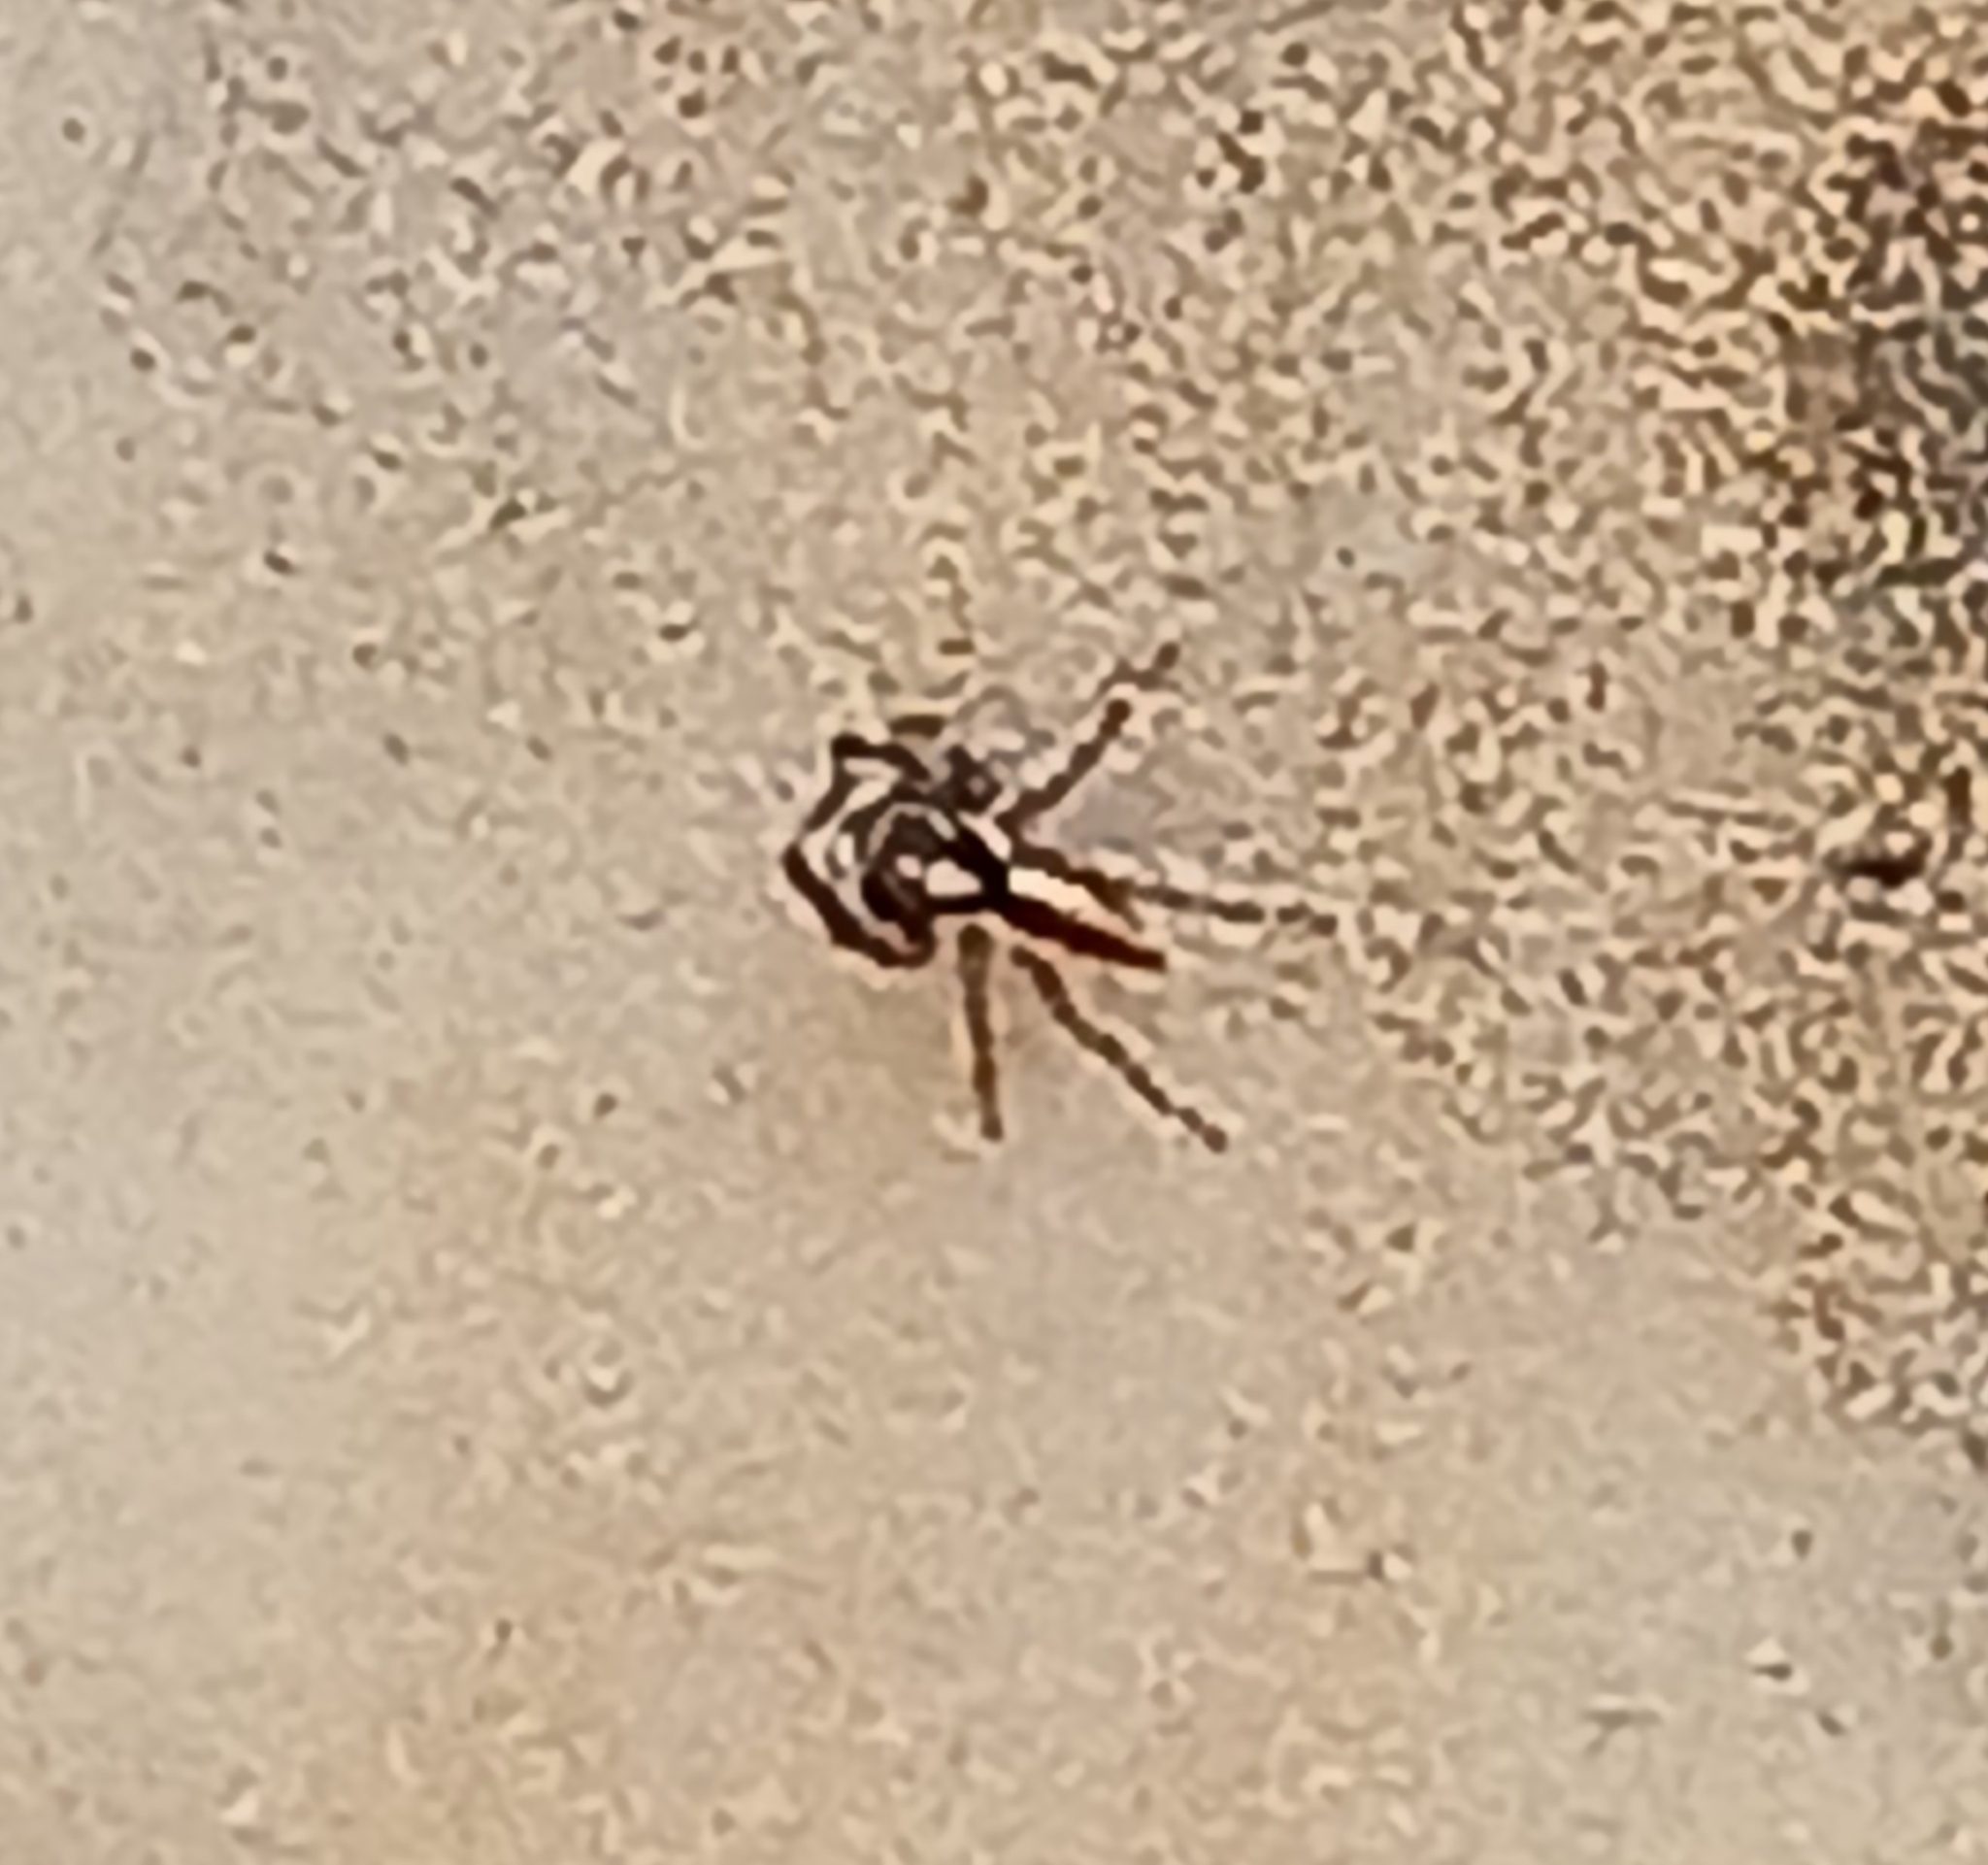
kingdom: Animalia
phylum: Arthropoda
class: Arachnida
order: Araneae
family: Salticidae
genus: Menemerus
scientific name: Menemerus bivittatus
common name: Gray wall jumper
